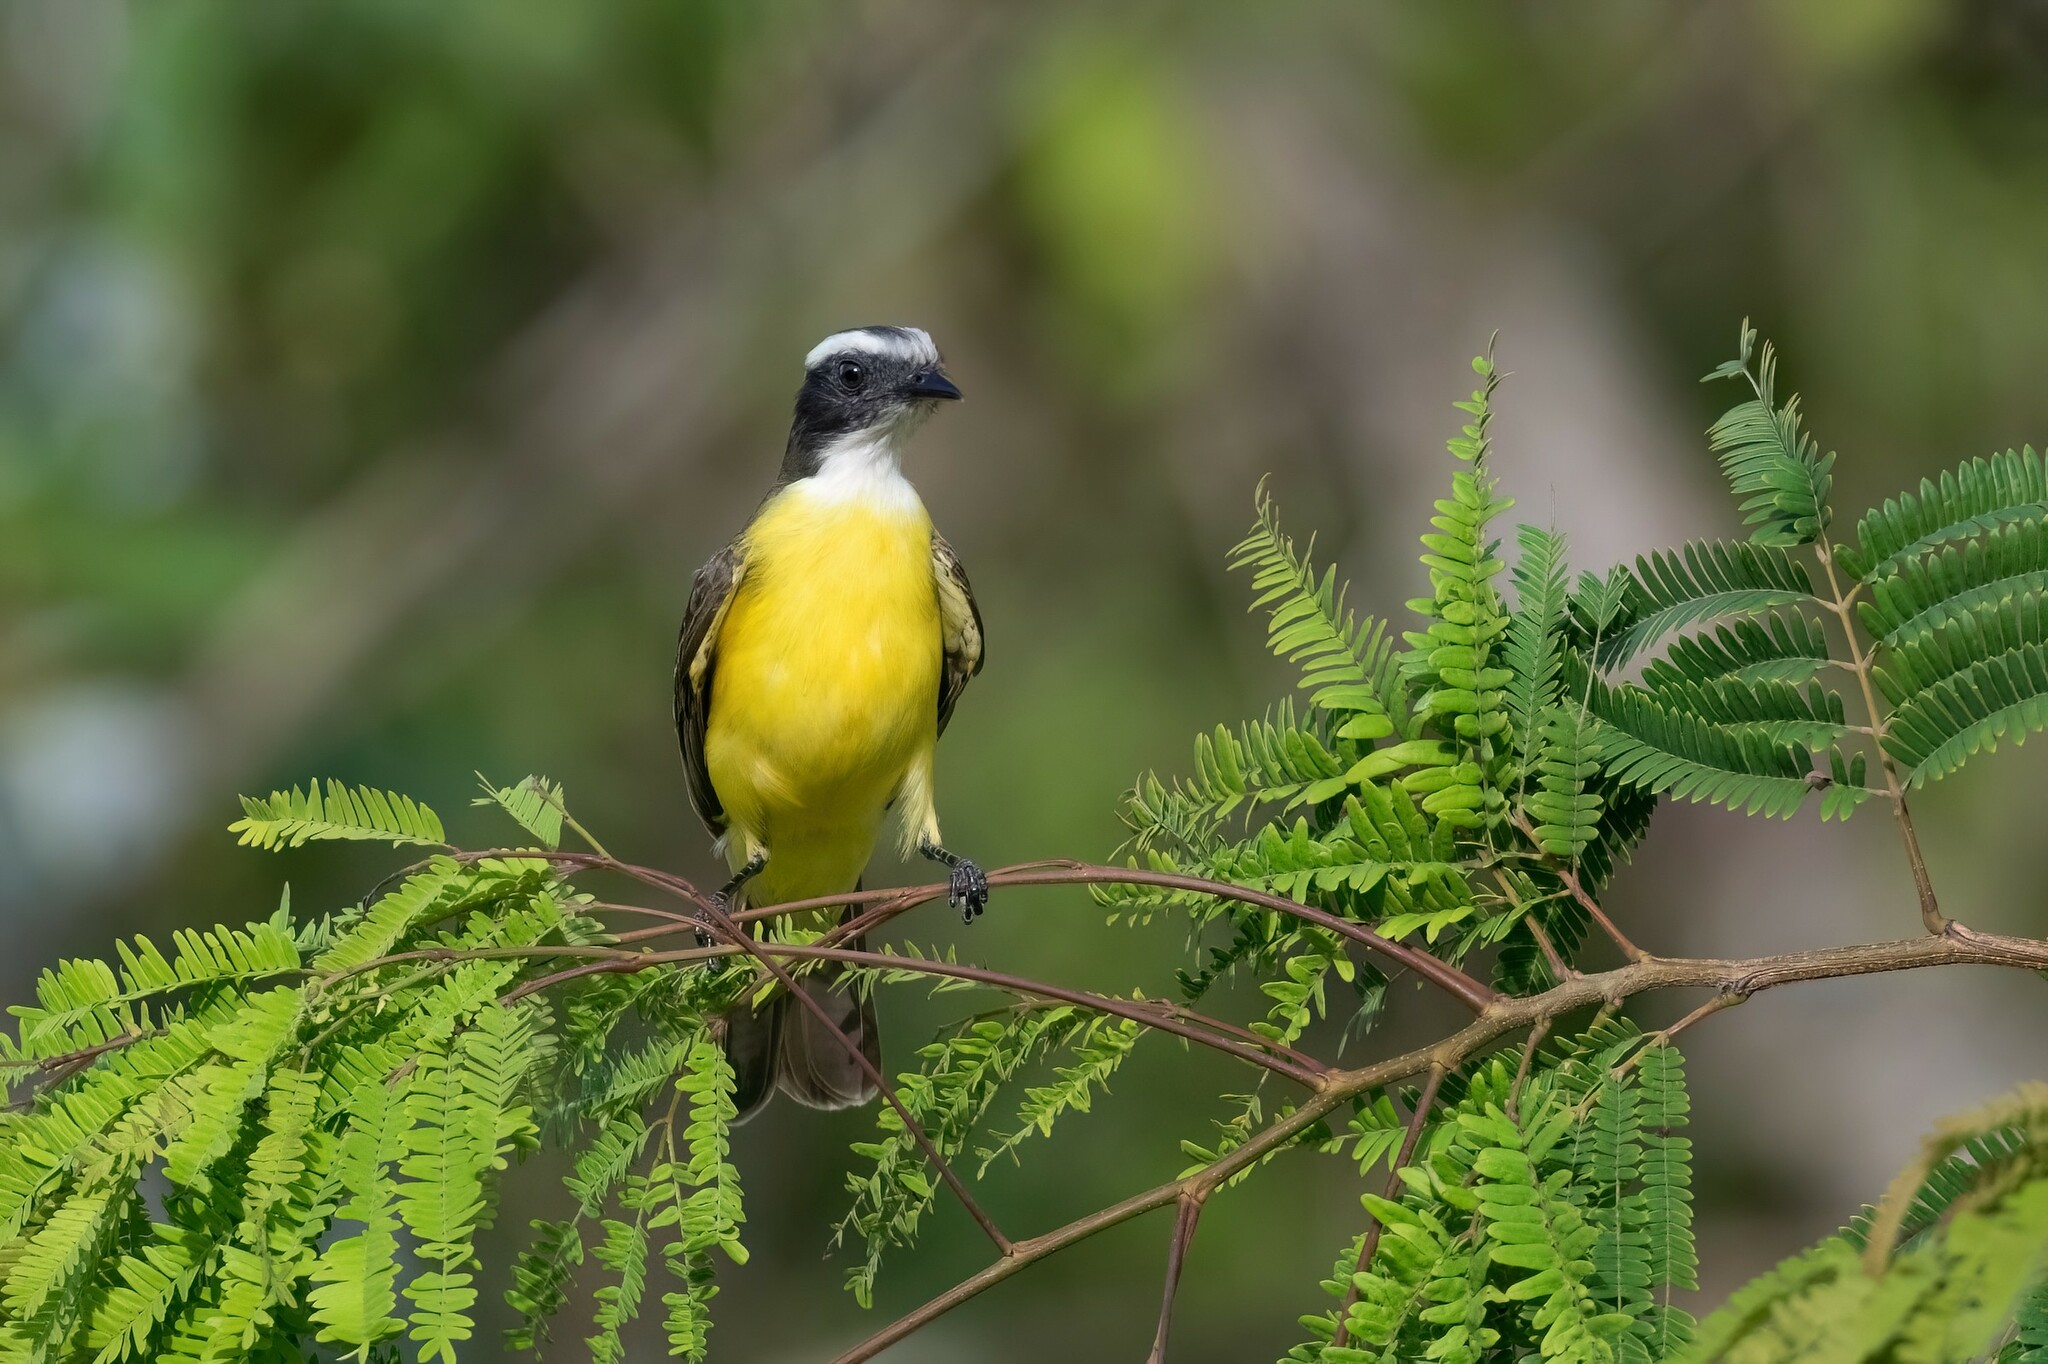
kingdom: Animalia
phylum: Chordata
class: Aves
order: Passeriformes
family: Tyrannidae
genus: Myiozetetes
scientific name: Myiozetetes similis
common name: Social flycatcher
